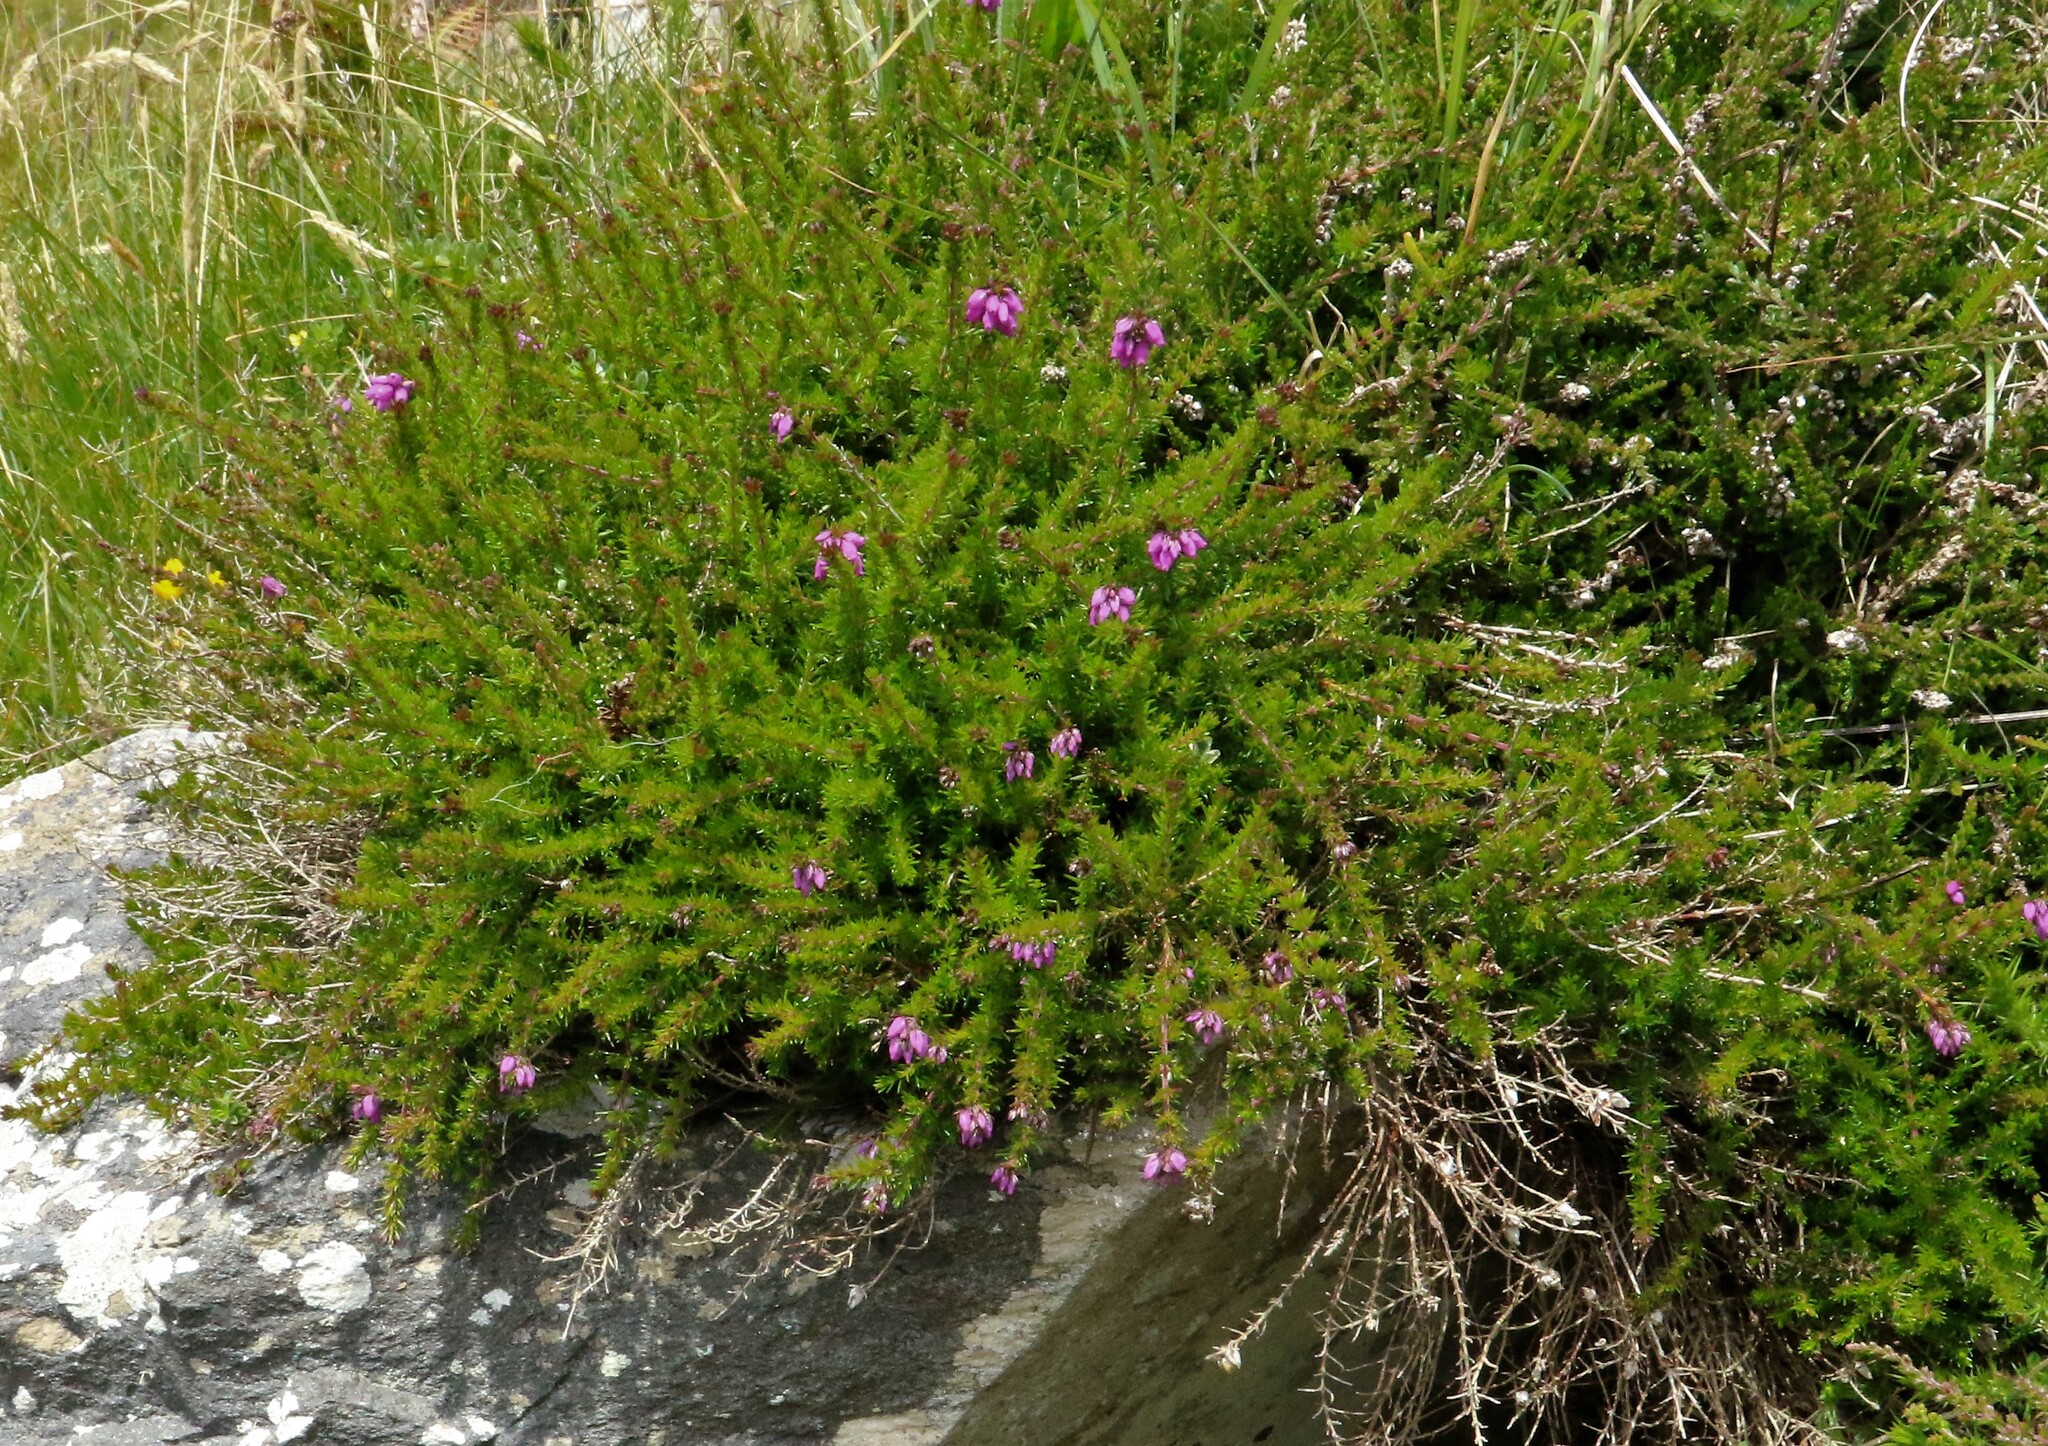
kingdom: Plantae
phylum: Tracheophyta
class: Magnoliopsida
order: Ericales
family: Ericaceae
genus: Erica
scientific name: Erica tetralix
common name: Cross-leaved heath
